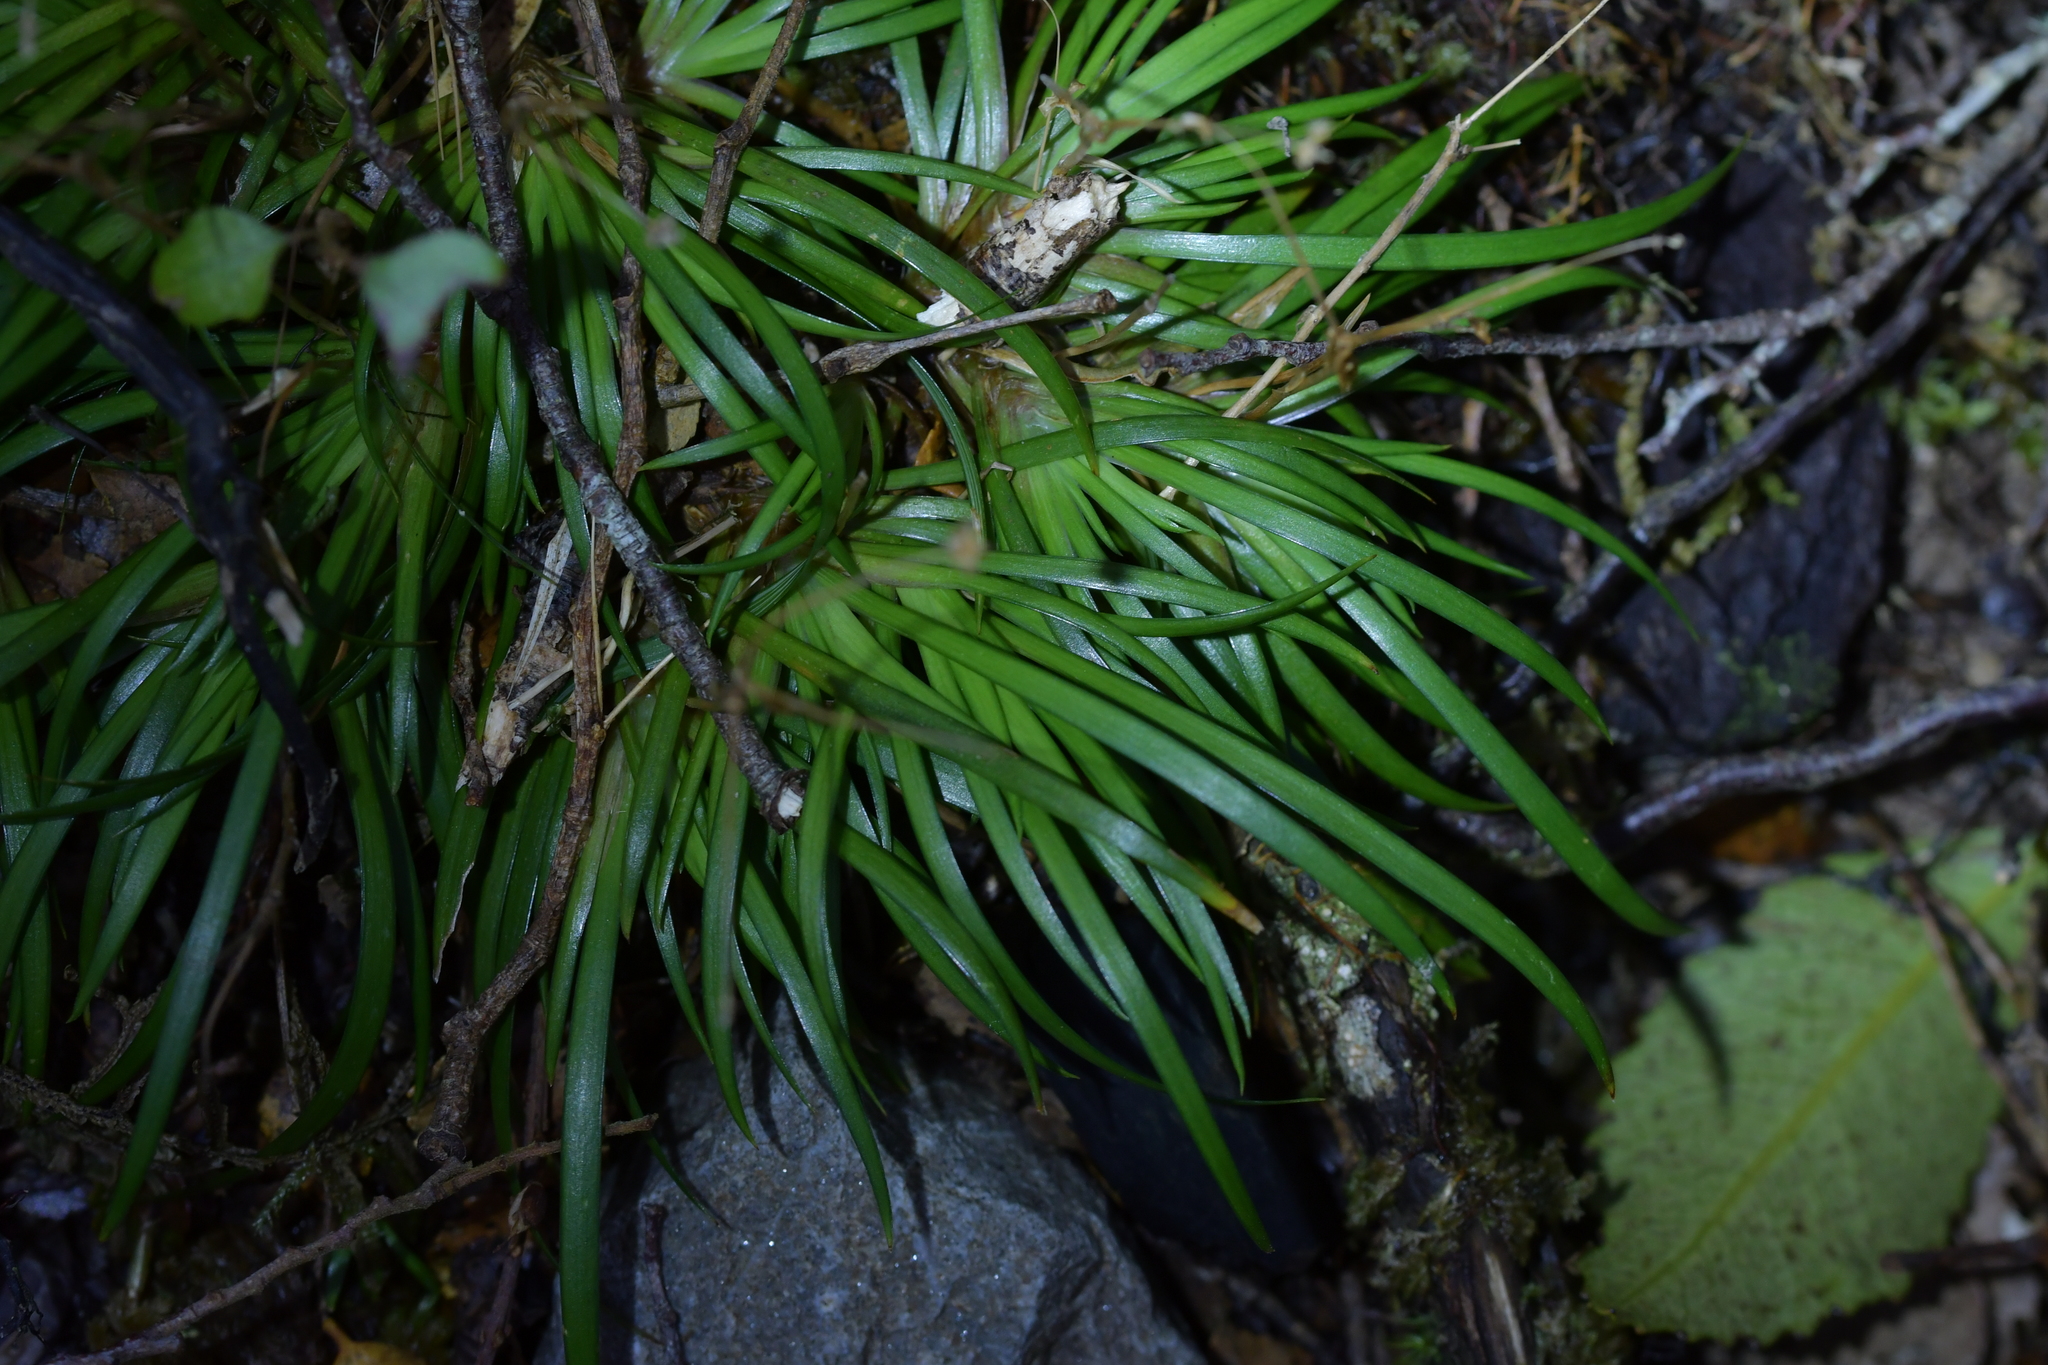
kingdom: Plantae
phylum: Tracheophyta
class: Liliopsida
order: Asparagales
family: Iridaceae
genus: Libertia
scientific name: Libertia micrantha
